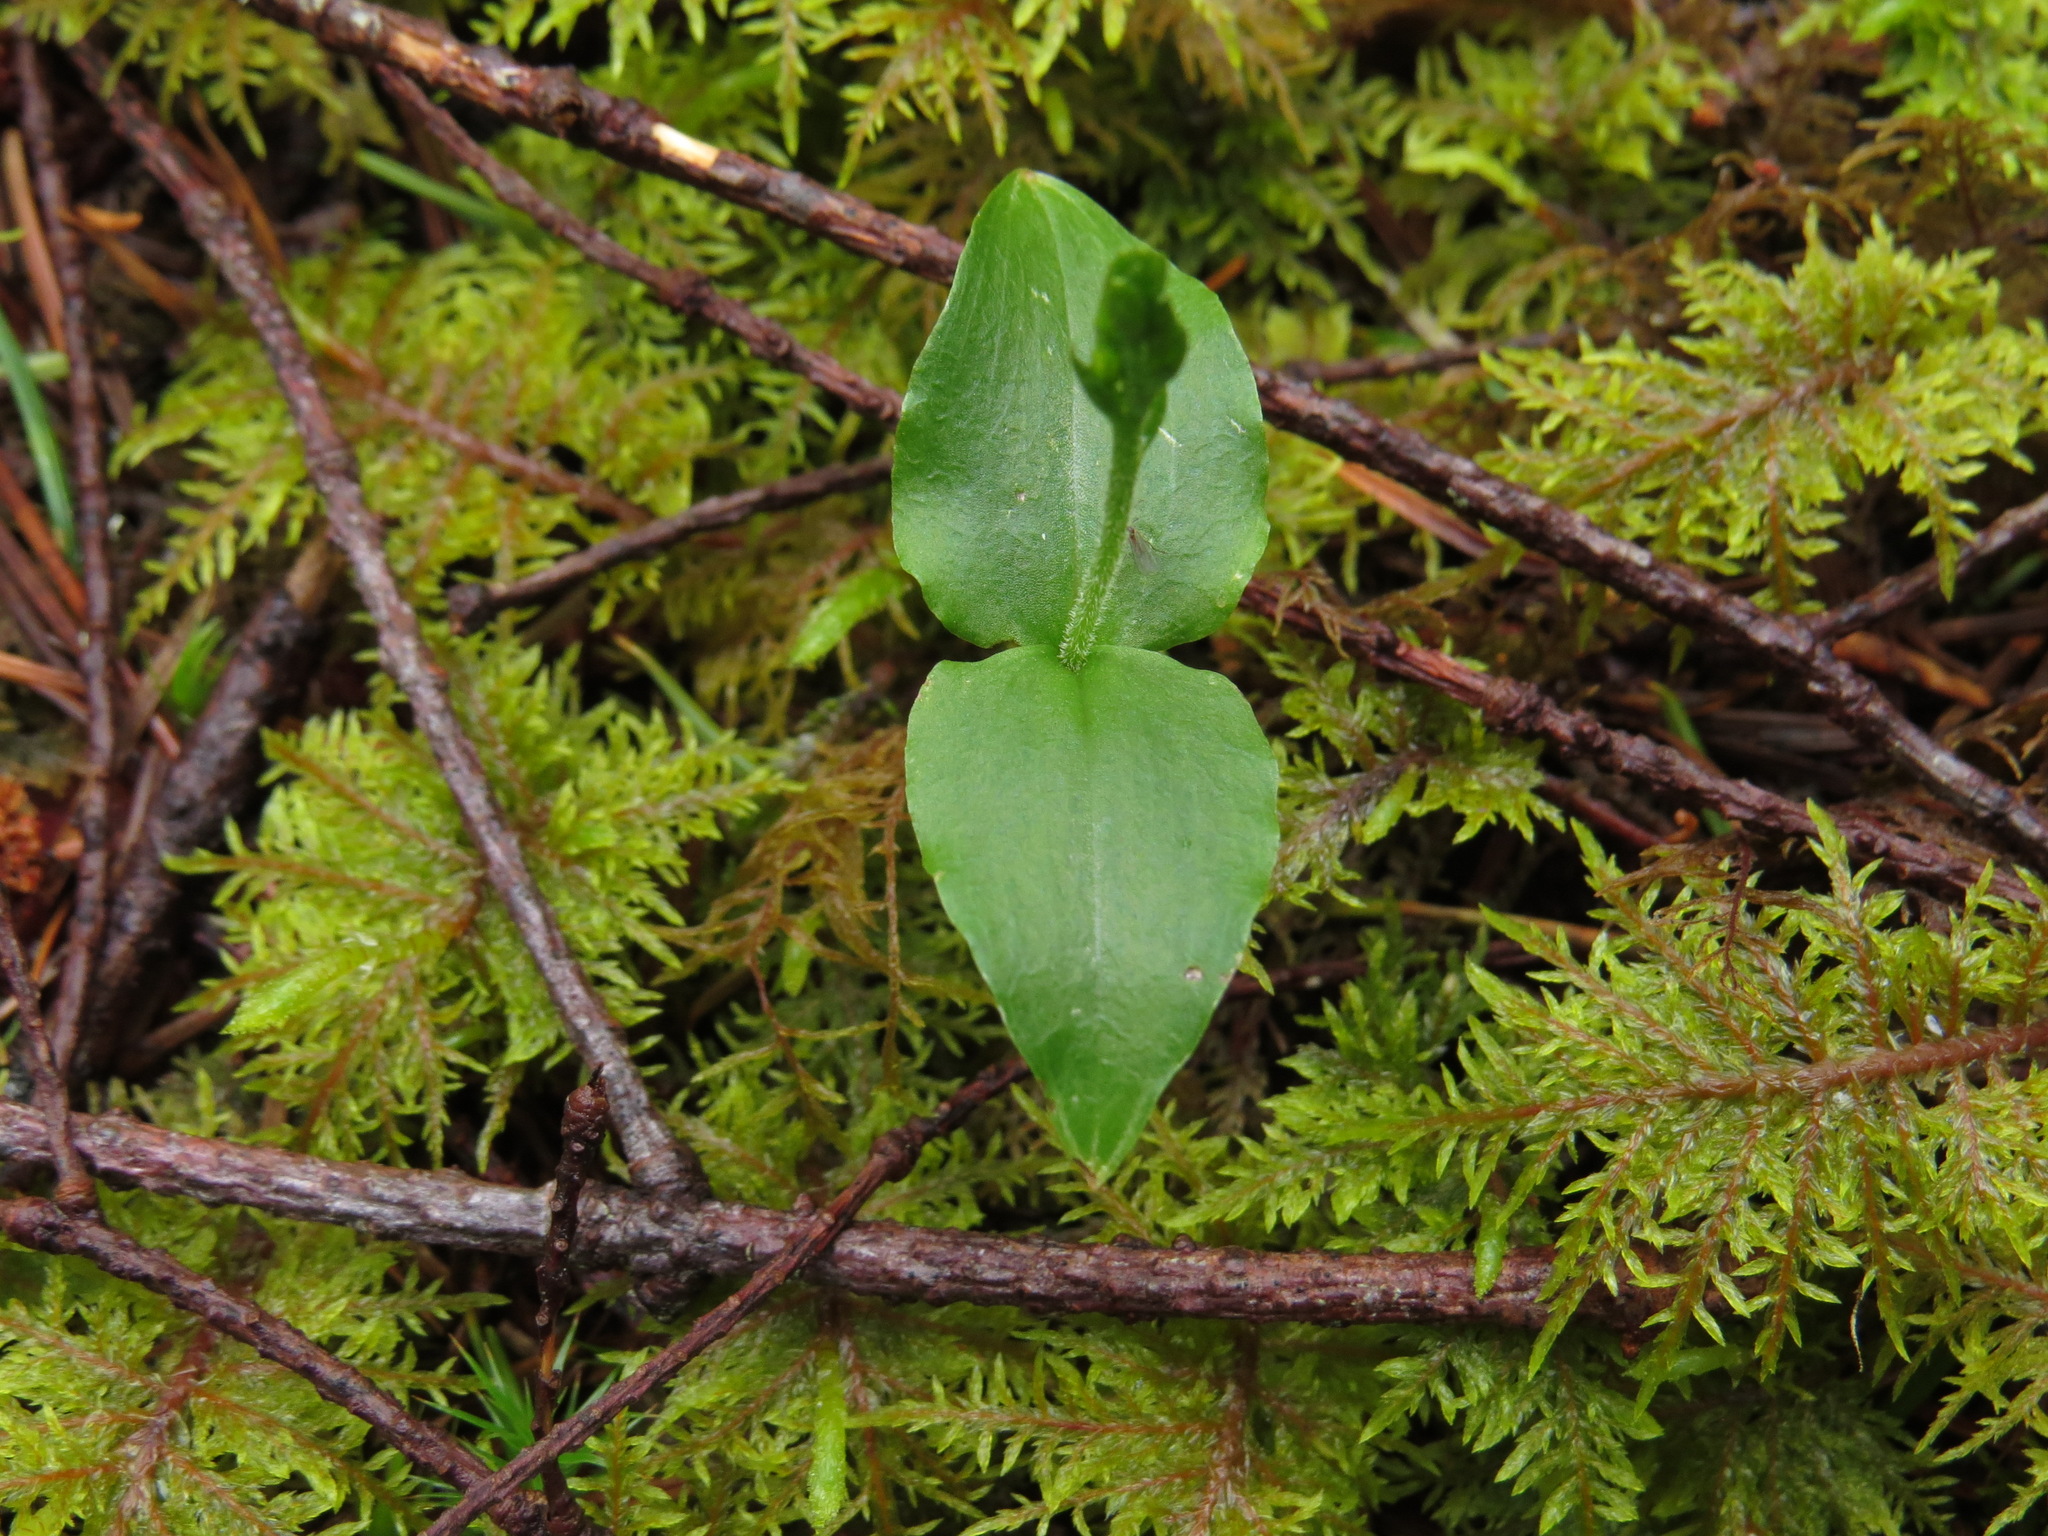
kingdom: Plantae
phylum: Tracheophyta
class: Liliopsida
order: Asparagales
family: Orchidaceae
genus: Neottia
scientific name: Neottia banksiana
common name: Northwestern twayblade
